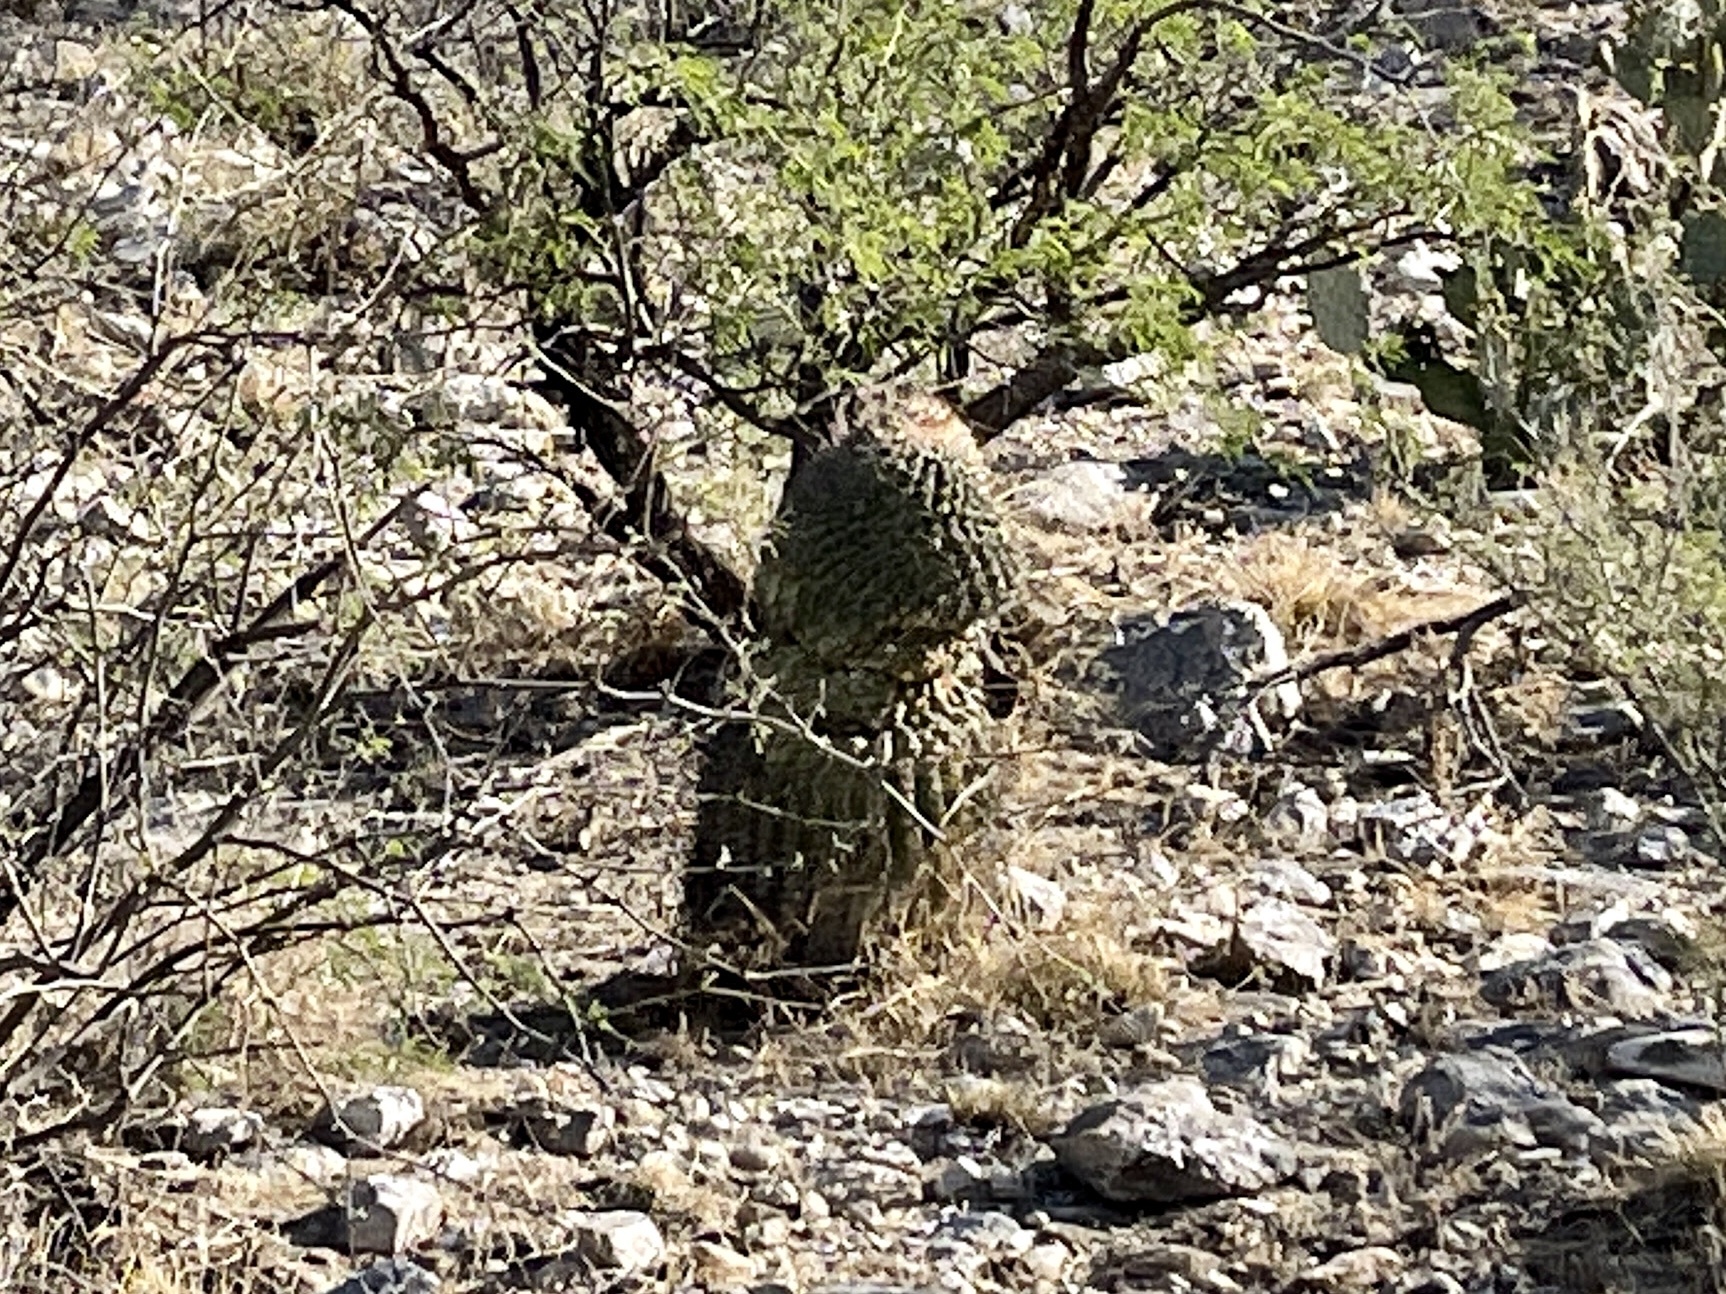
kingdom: Plantae
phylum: Tracheophyta
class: Magnoliopsida
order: Caryophyllales
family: Cactaceae
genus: Ferocactus
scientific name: Ferocactus wislizeni
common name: Candy barrel cactus
